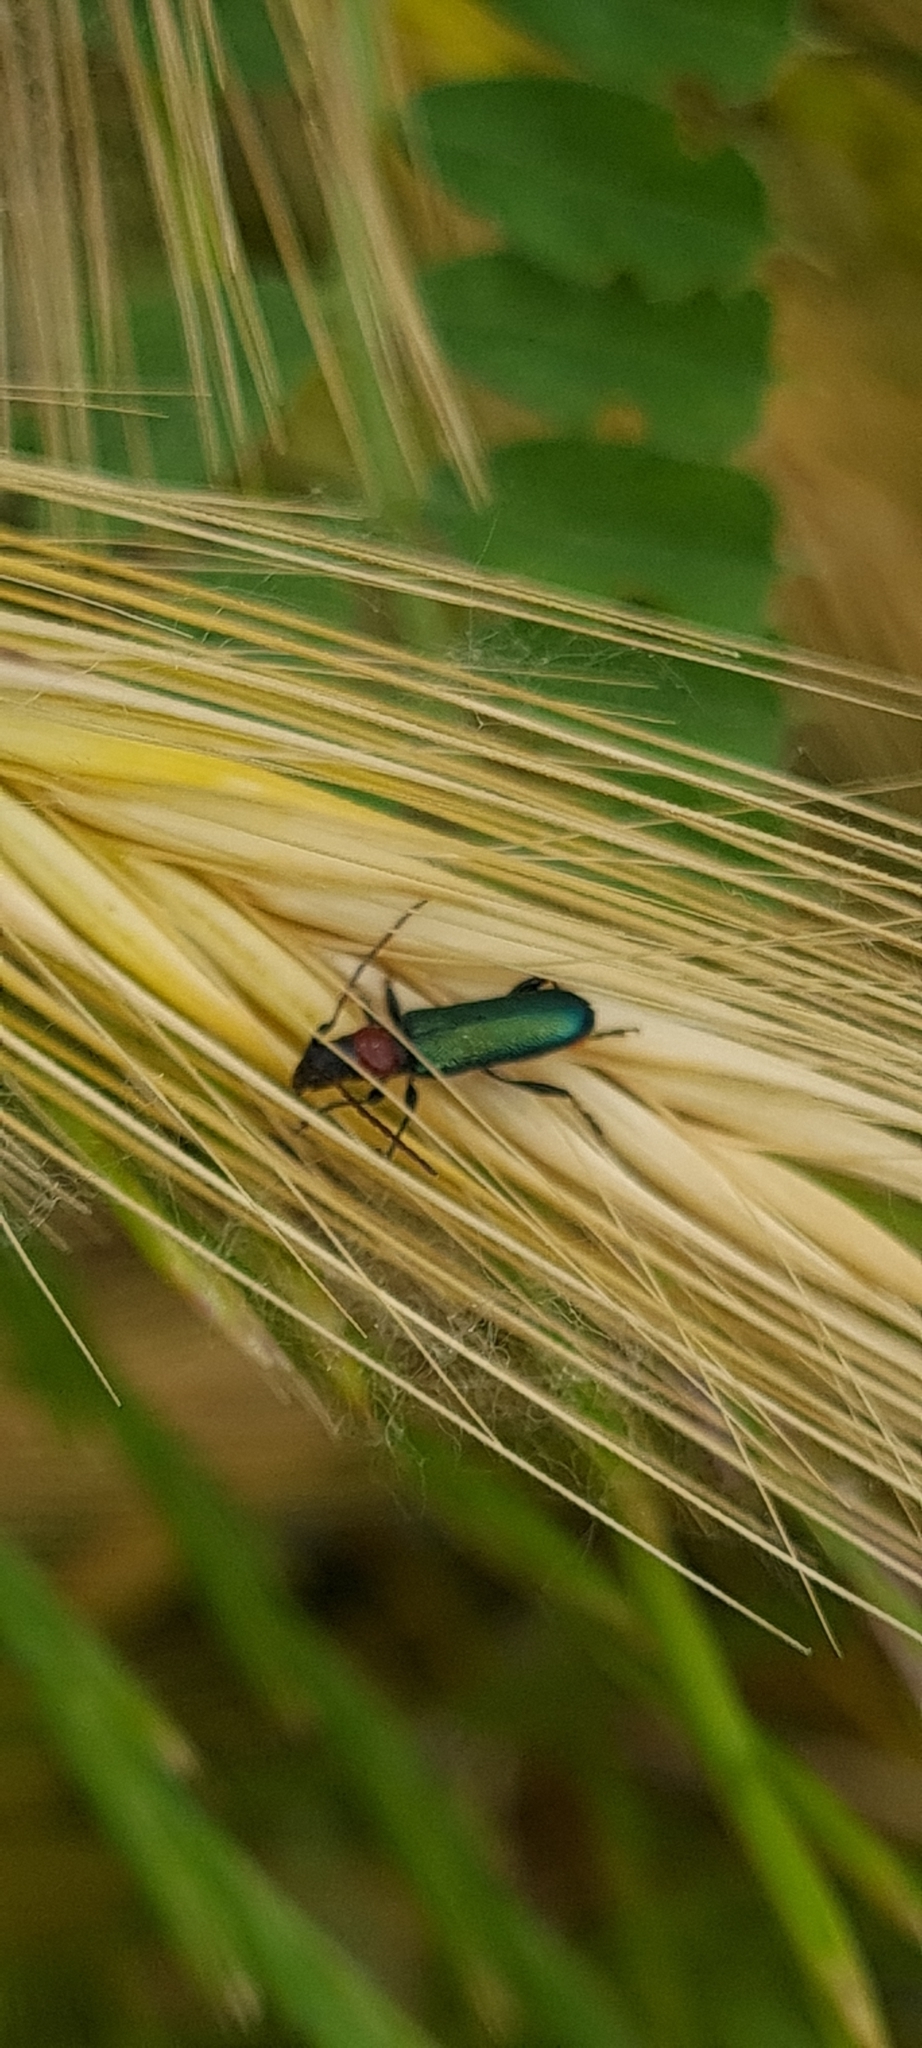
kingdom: Animalia
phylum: Arthropoda
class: Insecta
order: Coleoptera
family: Cerambycidae
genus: Certallum
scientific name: Certallum ebulinum
